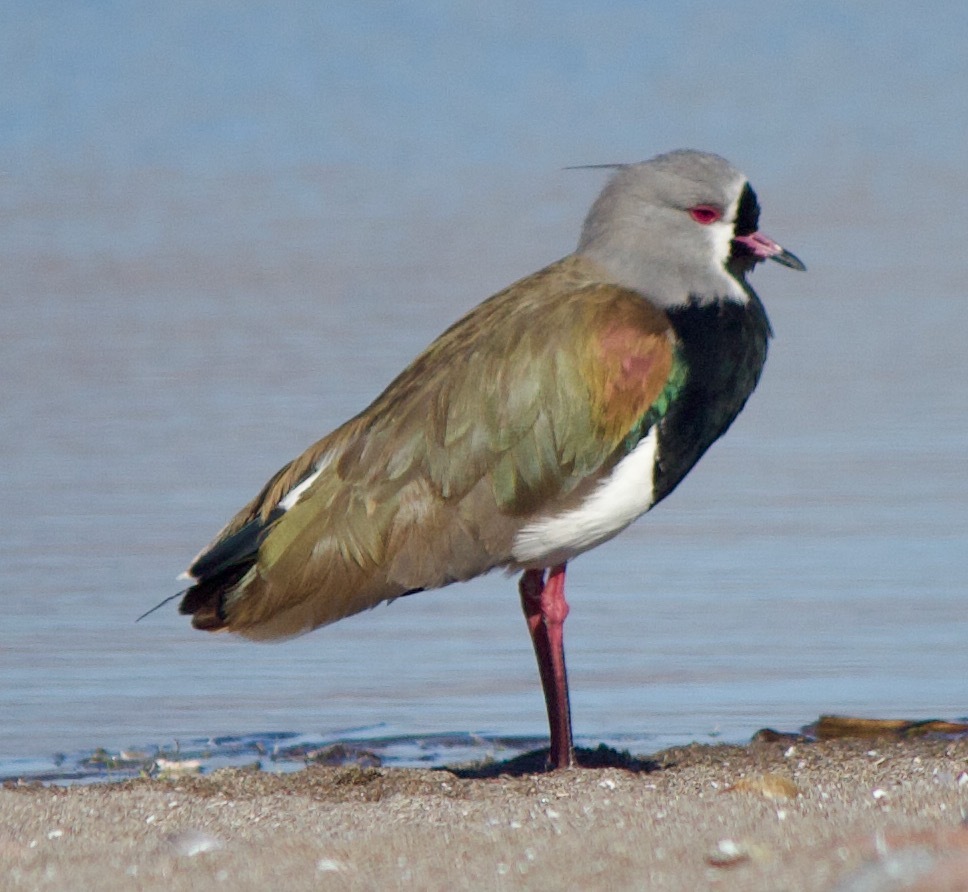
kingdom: Animalia
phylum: Chordata
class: Aves
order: Charadriiformes
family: Charadriidae
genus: Vanellus
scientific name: Vanellus chilensis
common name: Southern lapwing
